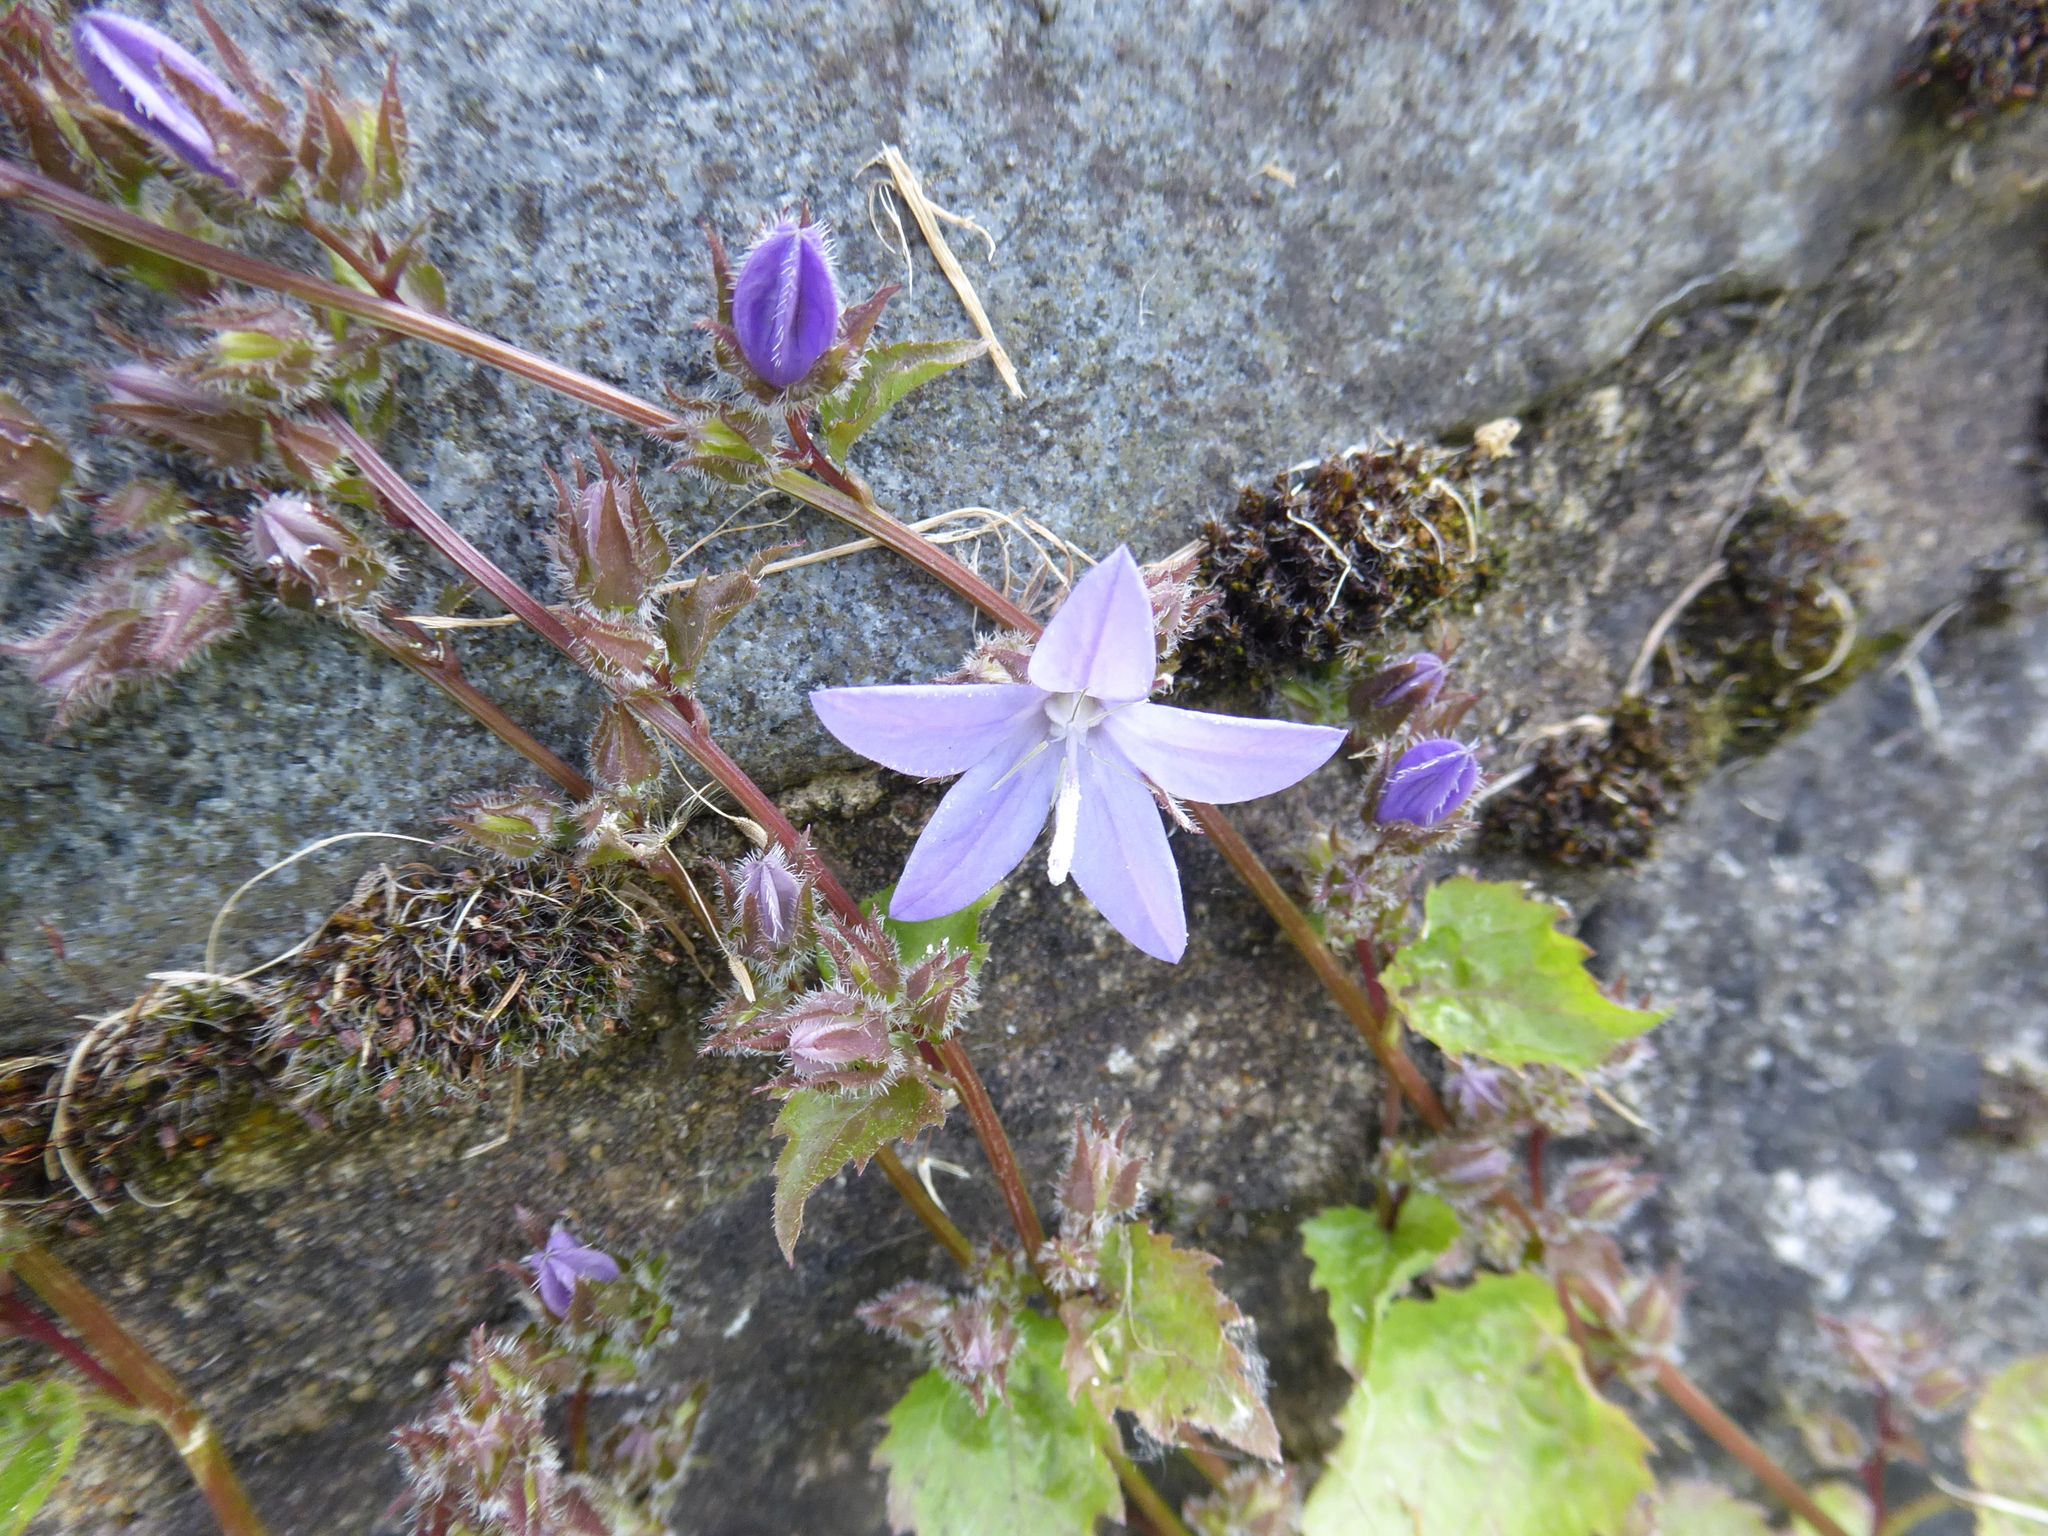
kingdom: Plantae
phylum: Tracheophyta
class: Magnoliopsida
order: Asterales
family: Campanulaceae
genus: Campanula
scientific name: Campanula poscharskyana
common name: Trailing bellflower
